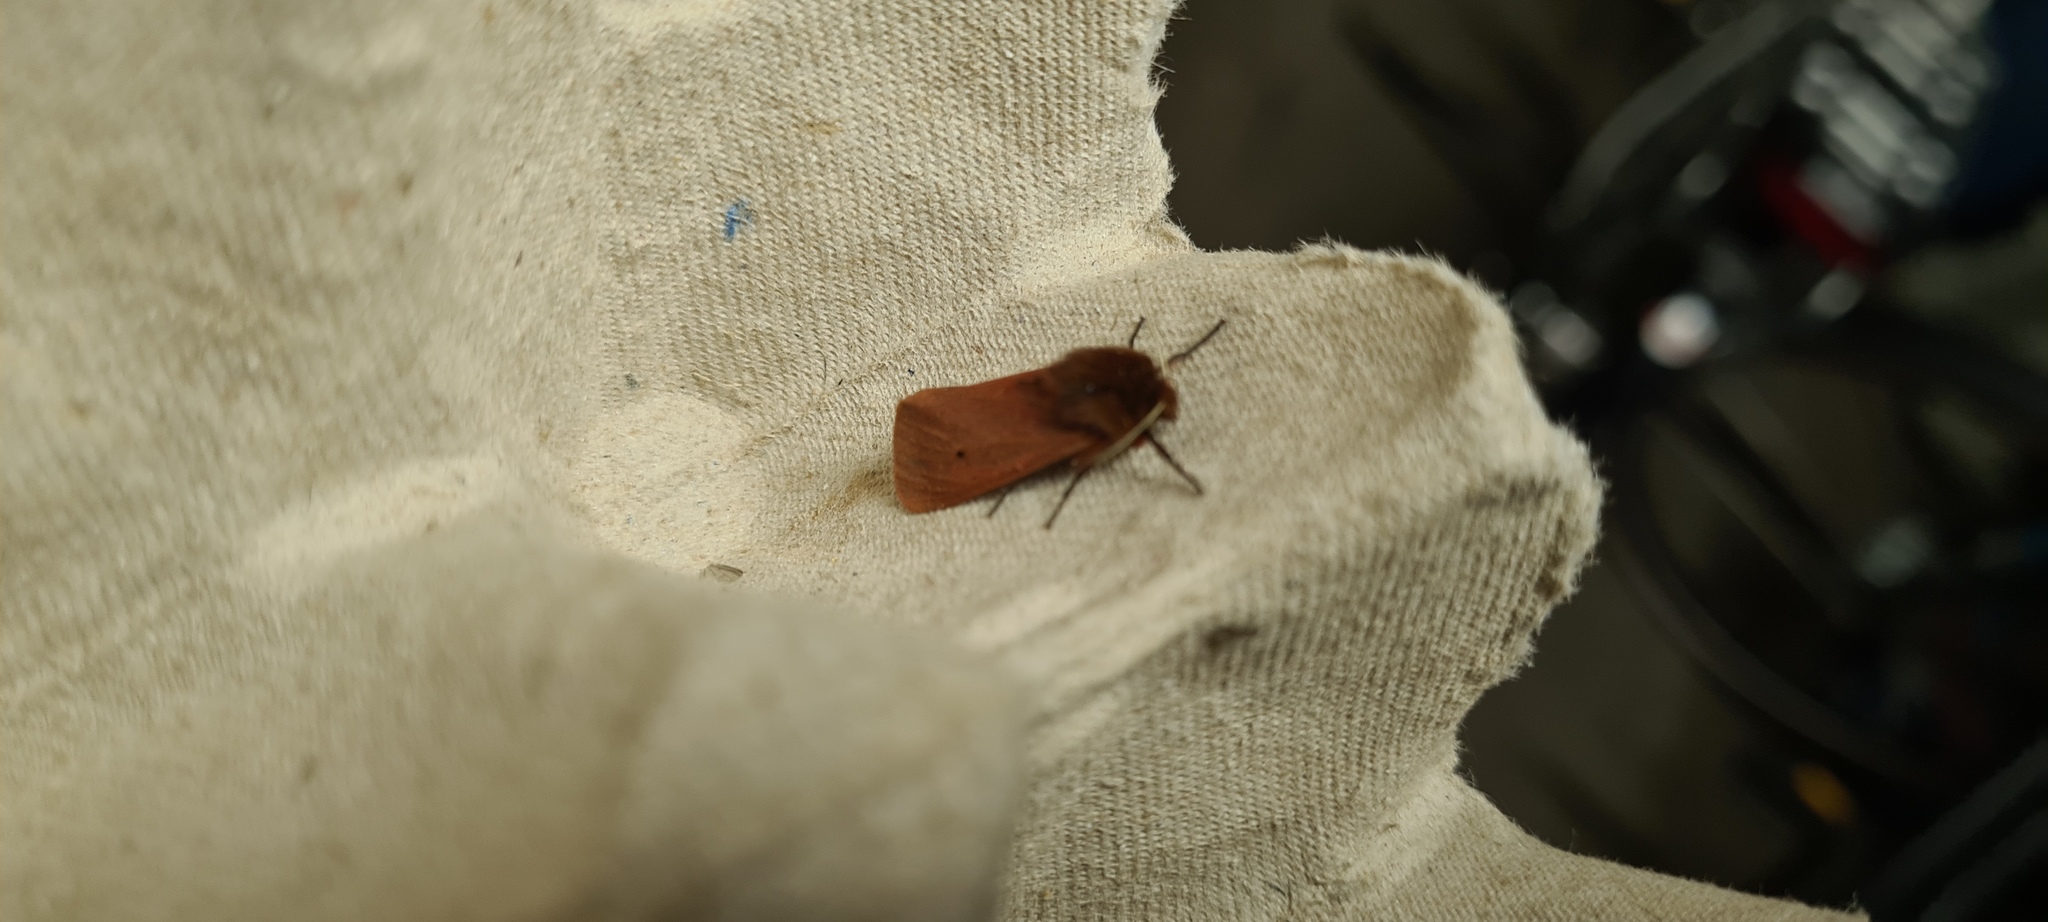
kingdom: Animalia
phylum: Arthropoda
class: Insecta
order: Lepidoptera
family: Erebidae
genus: Phragmatobia
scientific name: Phragmatobia fuliginosa
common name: Ruby tiger
